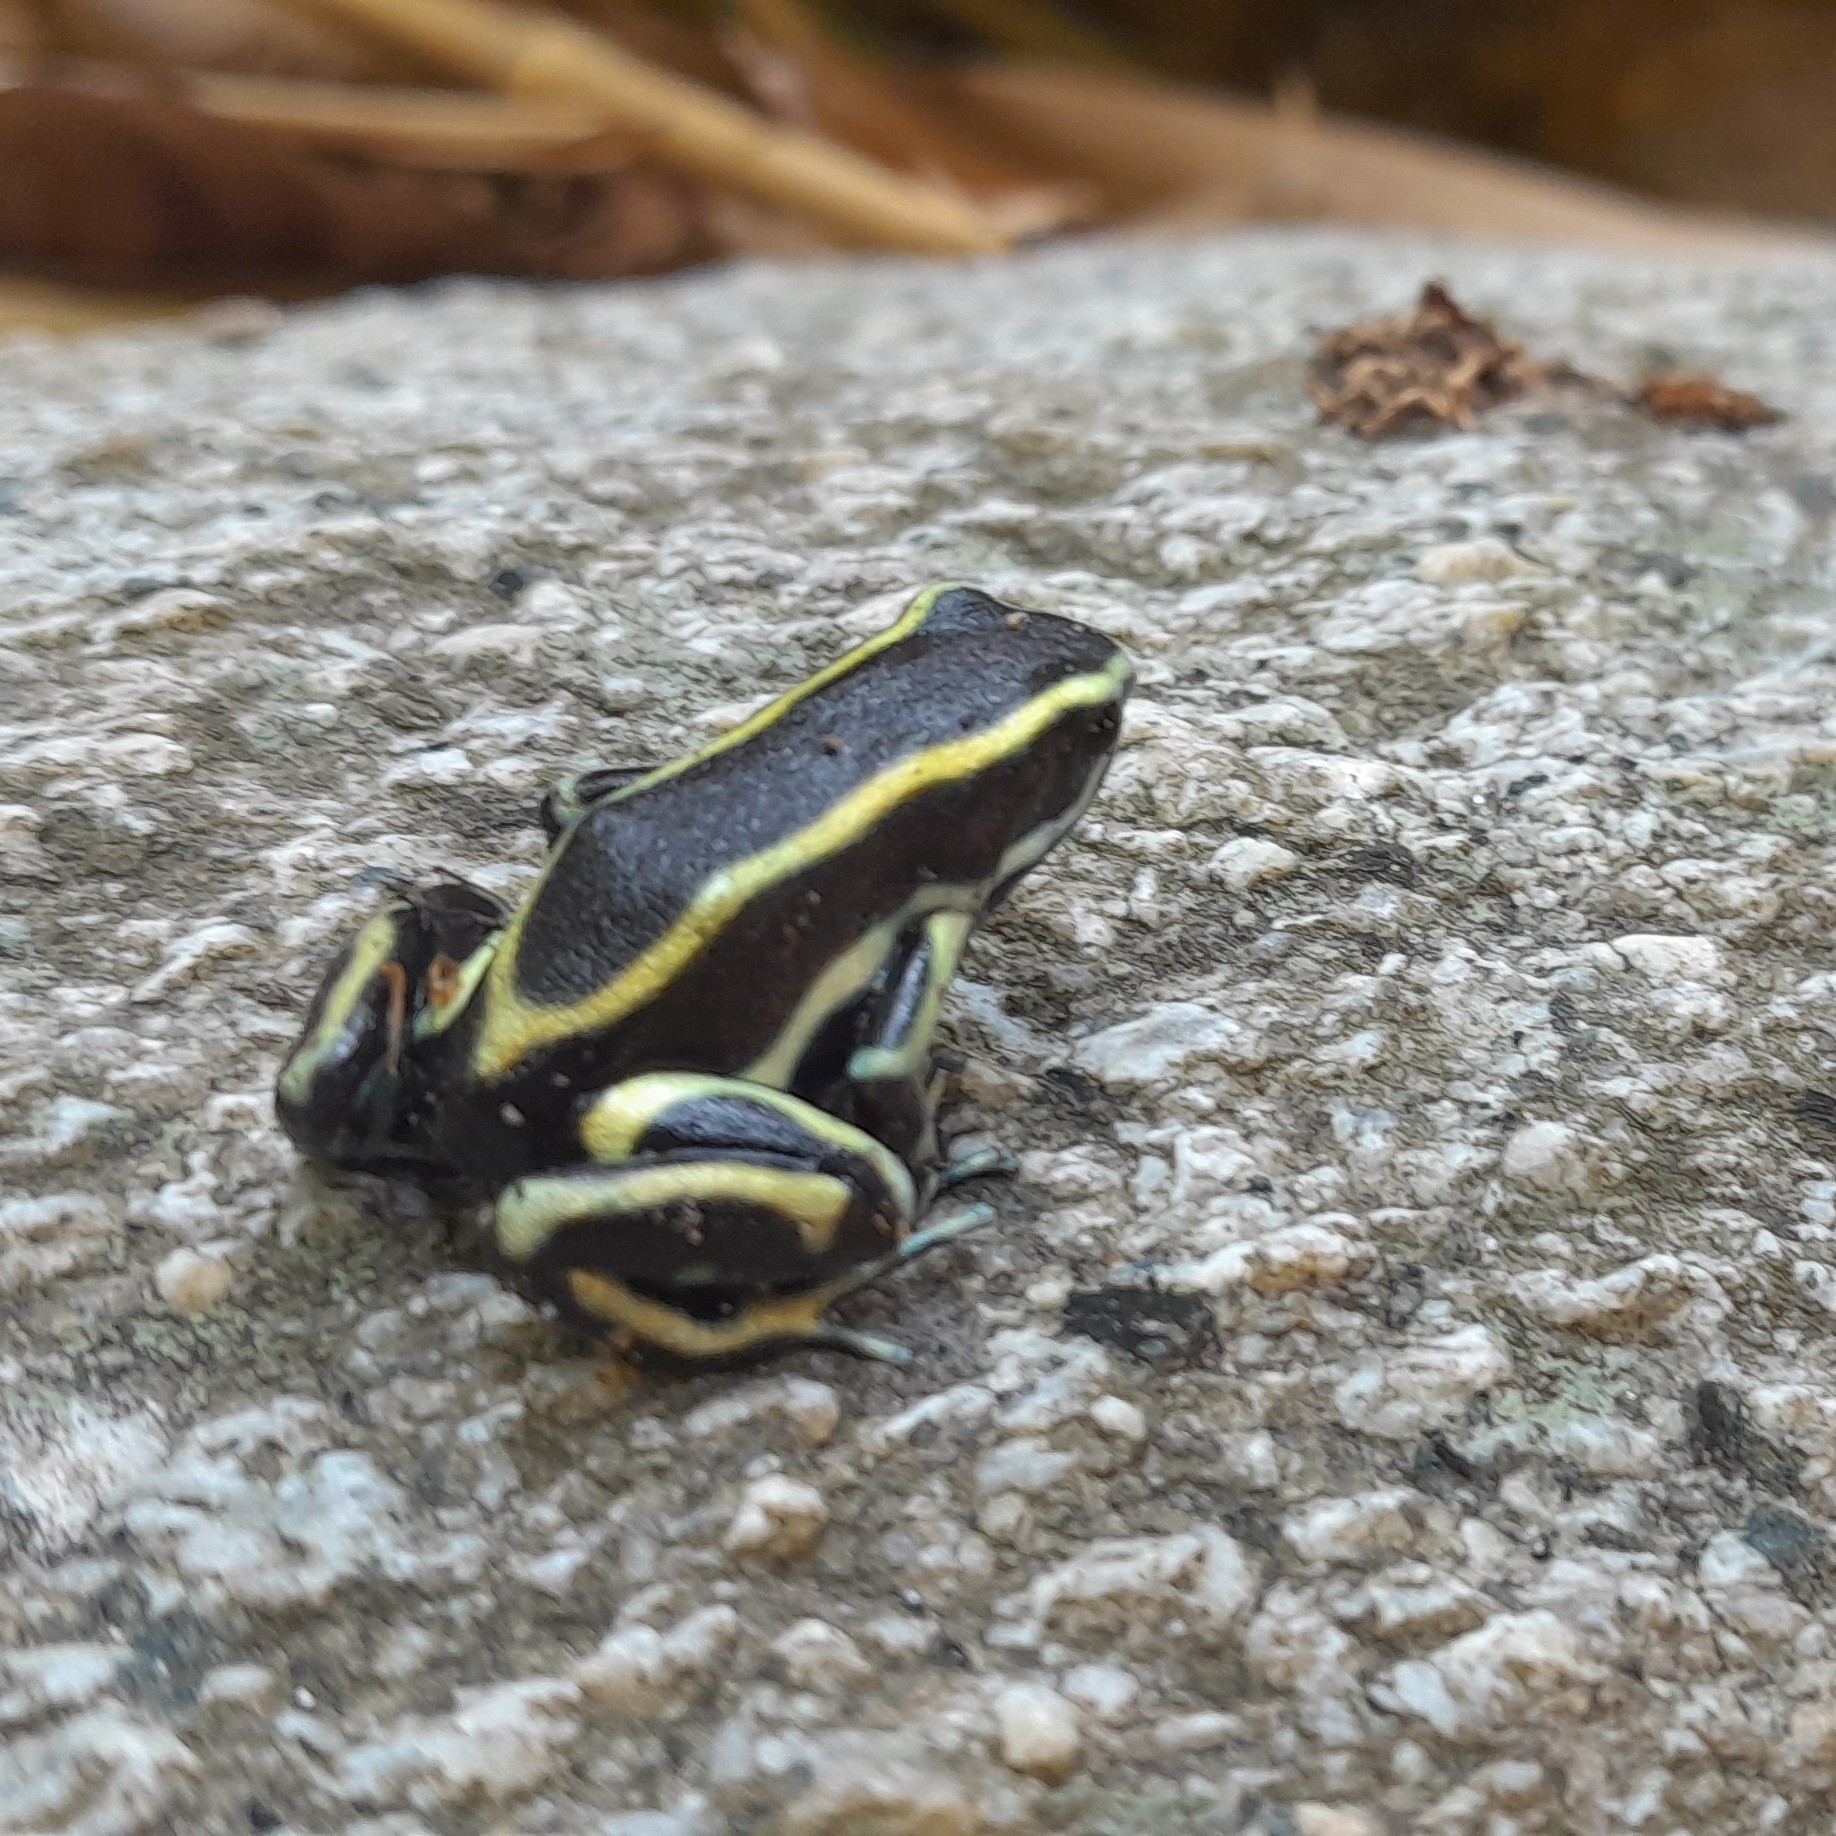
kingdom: Animalia
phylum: Chordata
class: Amphibia
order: Anura
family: Dendrobatidae
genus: Dendrobates
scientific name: Dendrobates truncatus
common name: Yellow-striped poison frog
